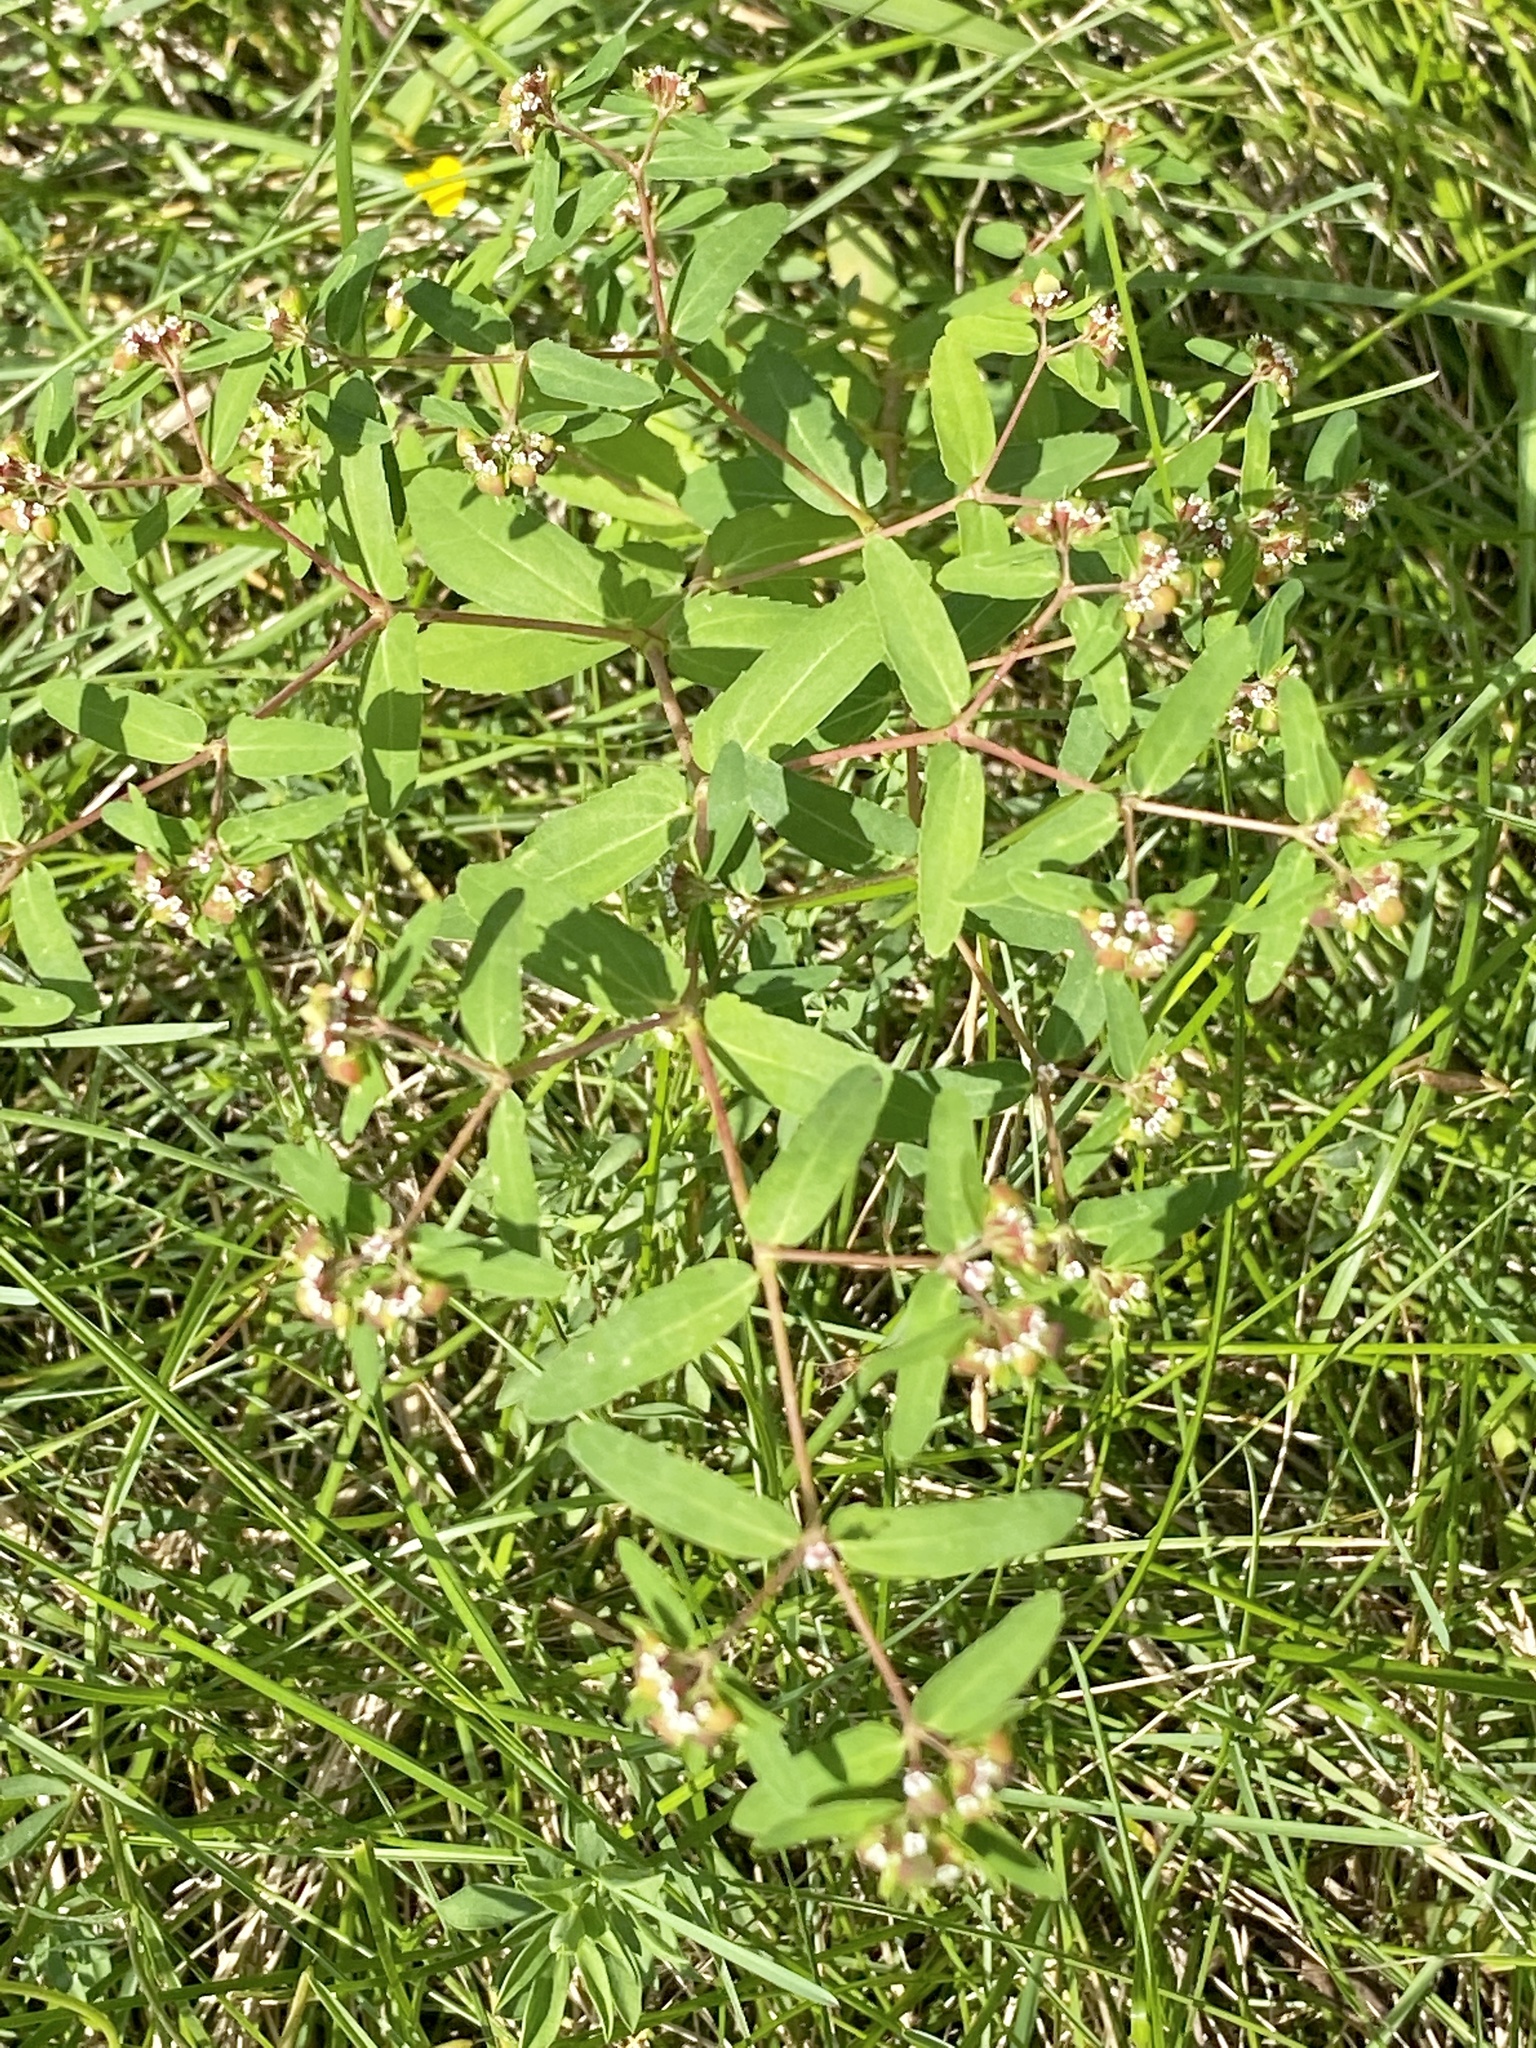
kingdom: Plantae
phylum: Tracheophyta
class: Magnoliopsida
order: Malpighiales
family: Euphorbiaceae
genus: Euphorbia
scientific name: Euphorbia nutans
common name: Eyebane
